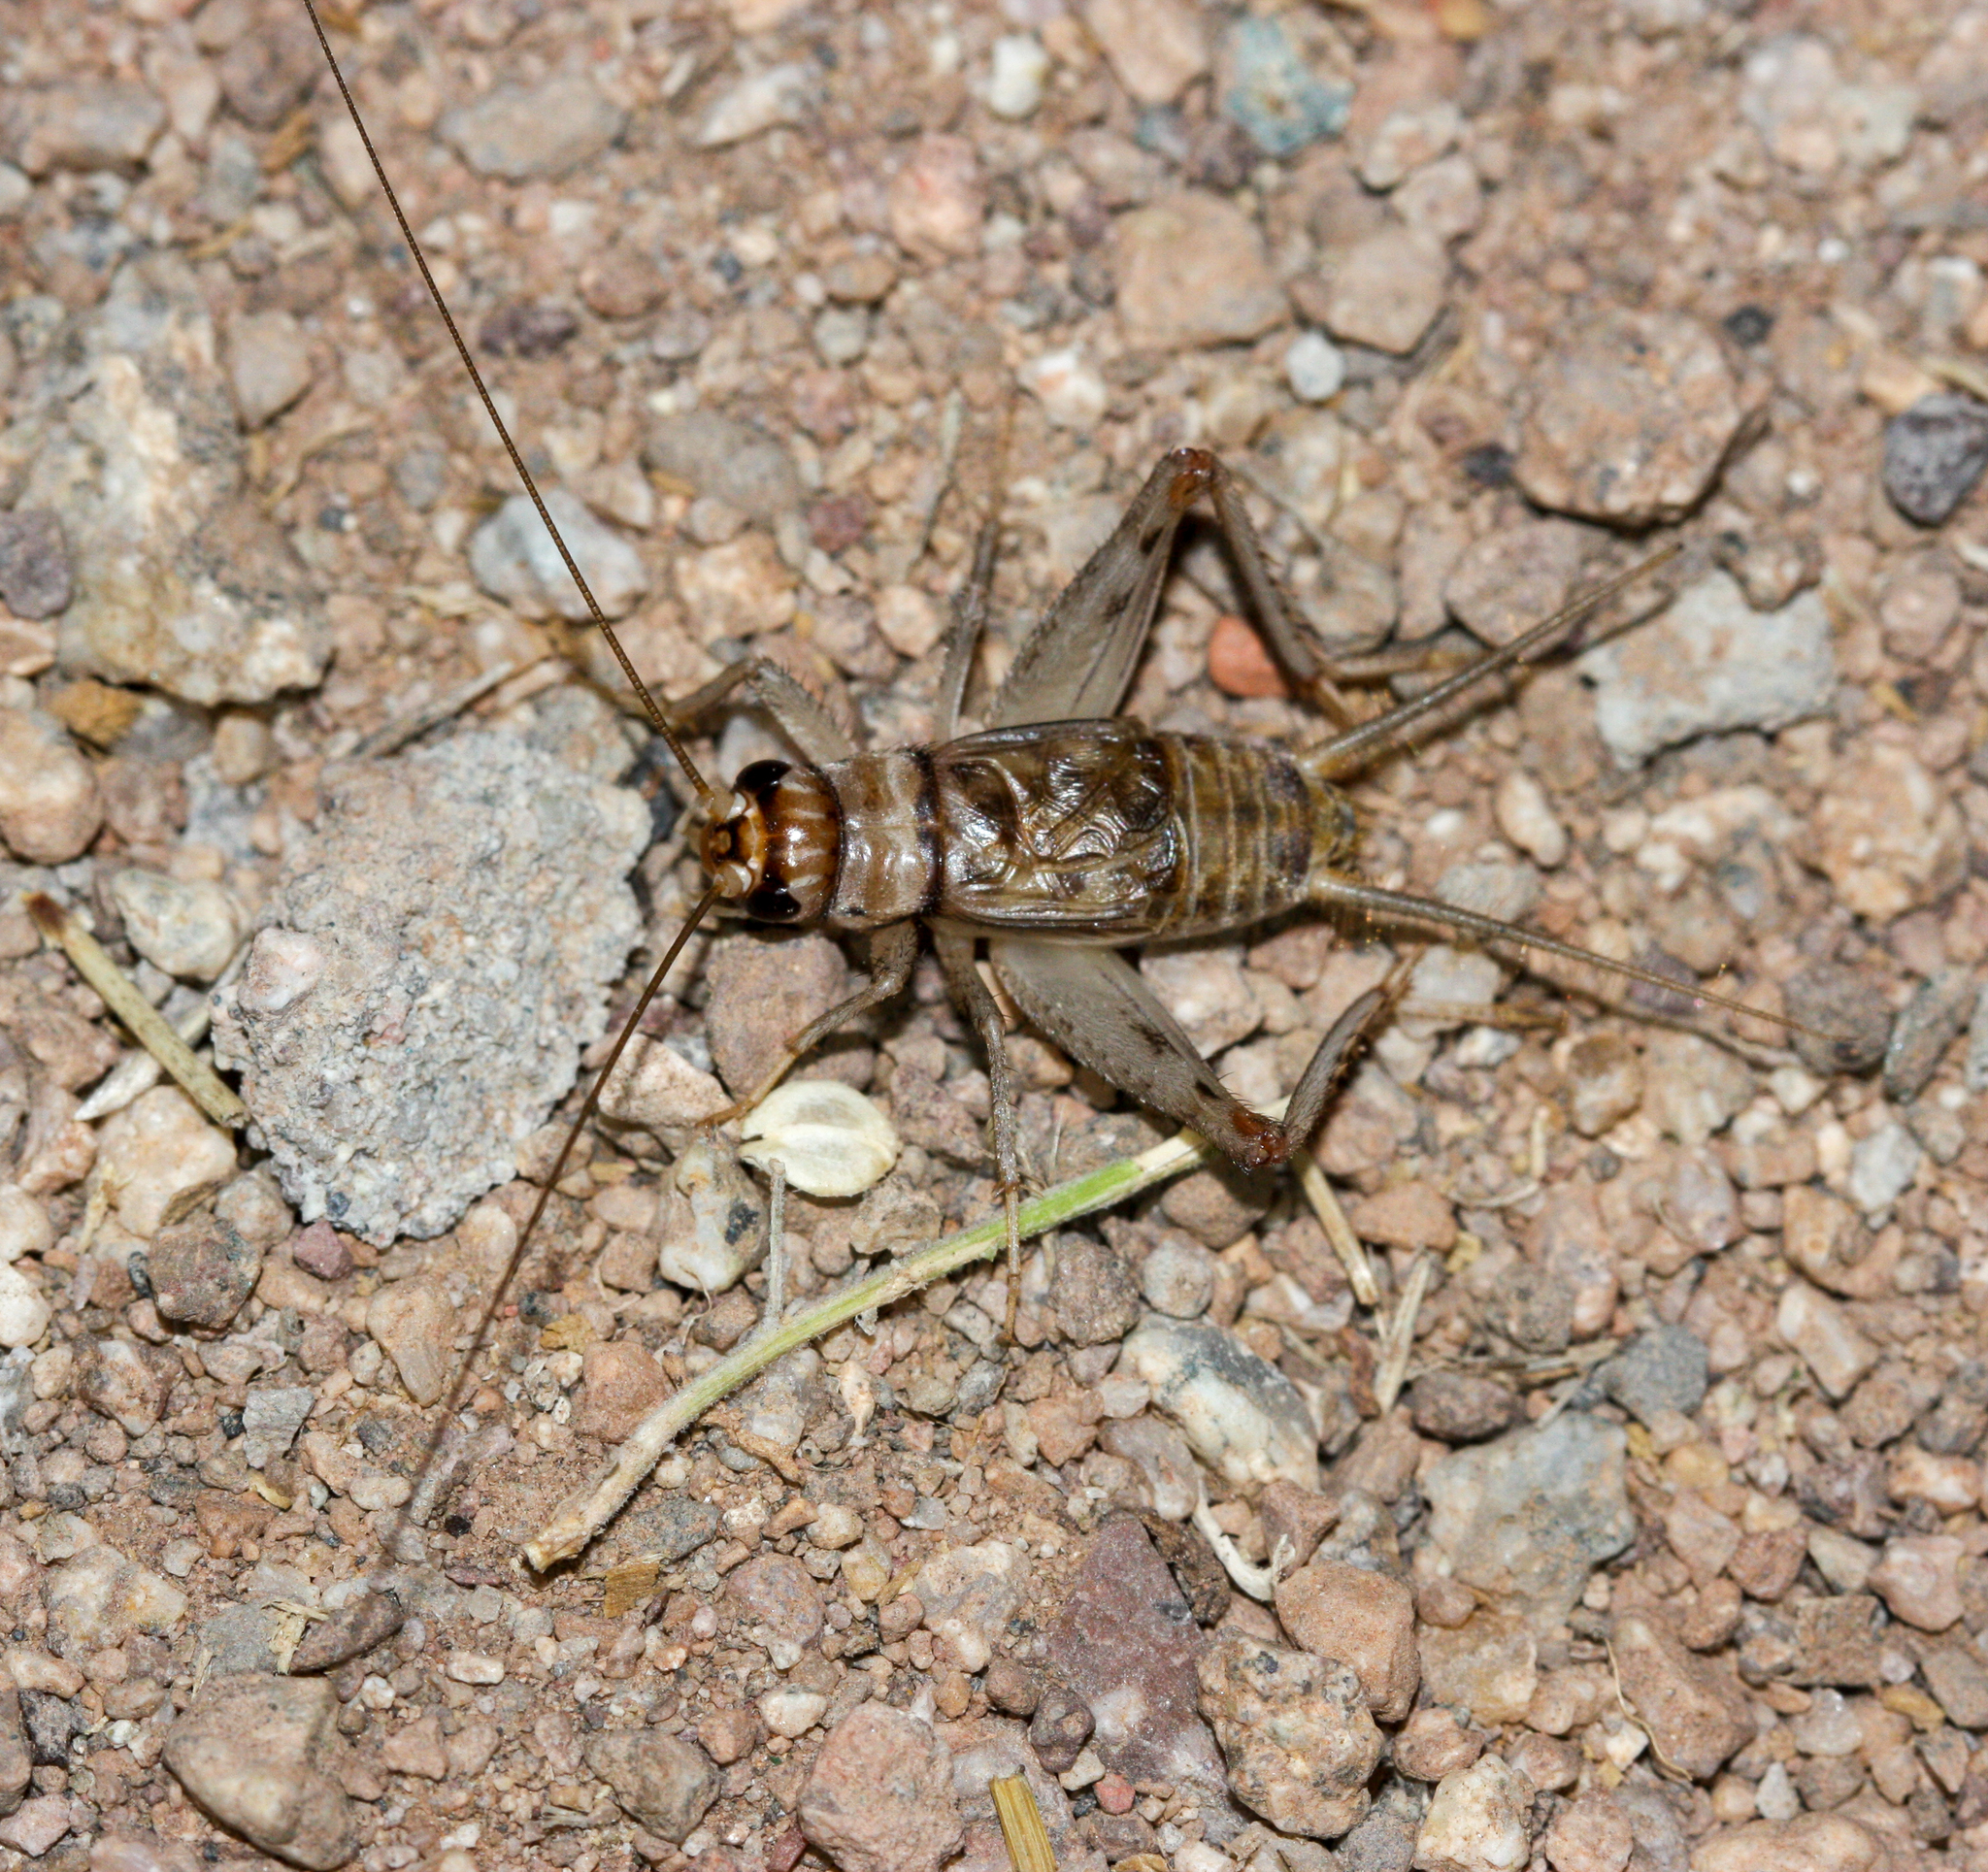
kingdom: Animalia
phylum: Arthropoda
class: Insecta
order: Orthoptera
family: Gryllidae
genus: Gryllodes
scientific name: Gryllodes sigillatus
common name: Tropical house cricket
